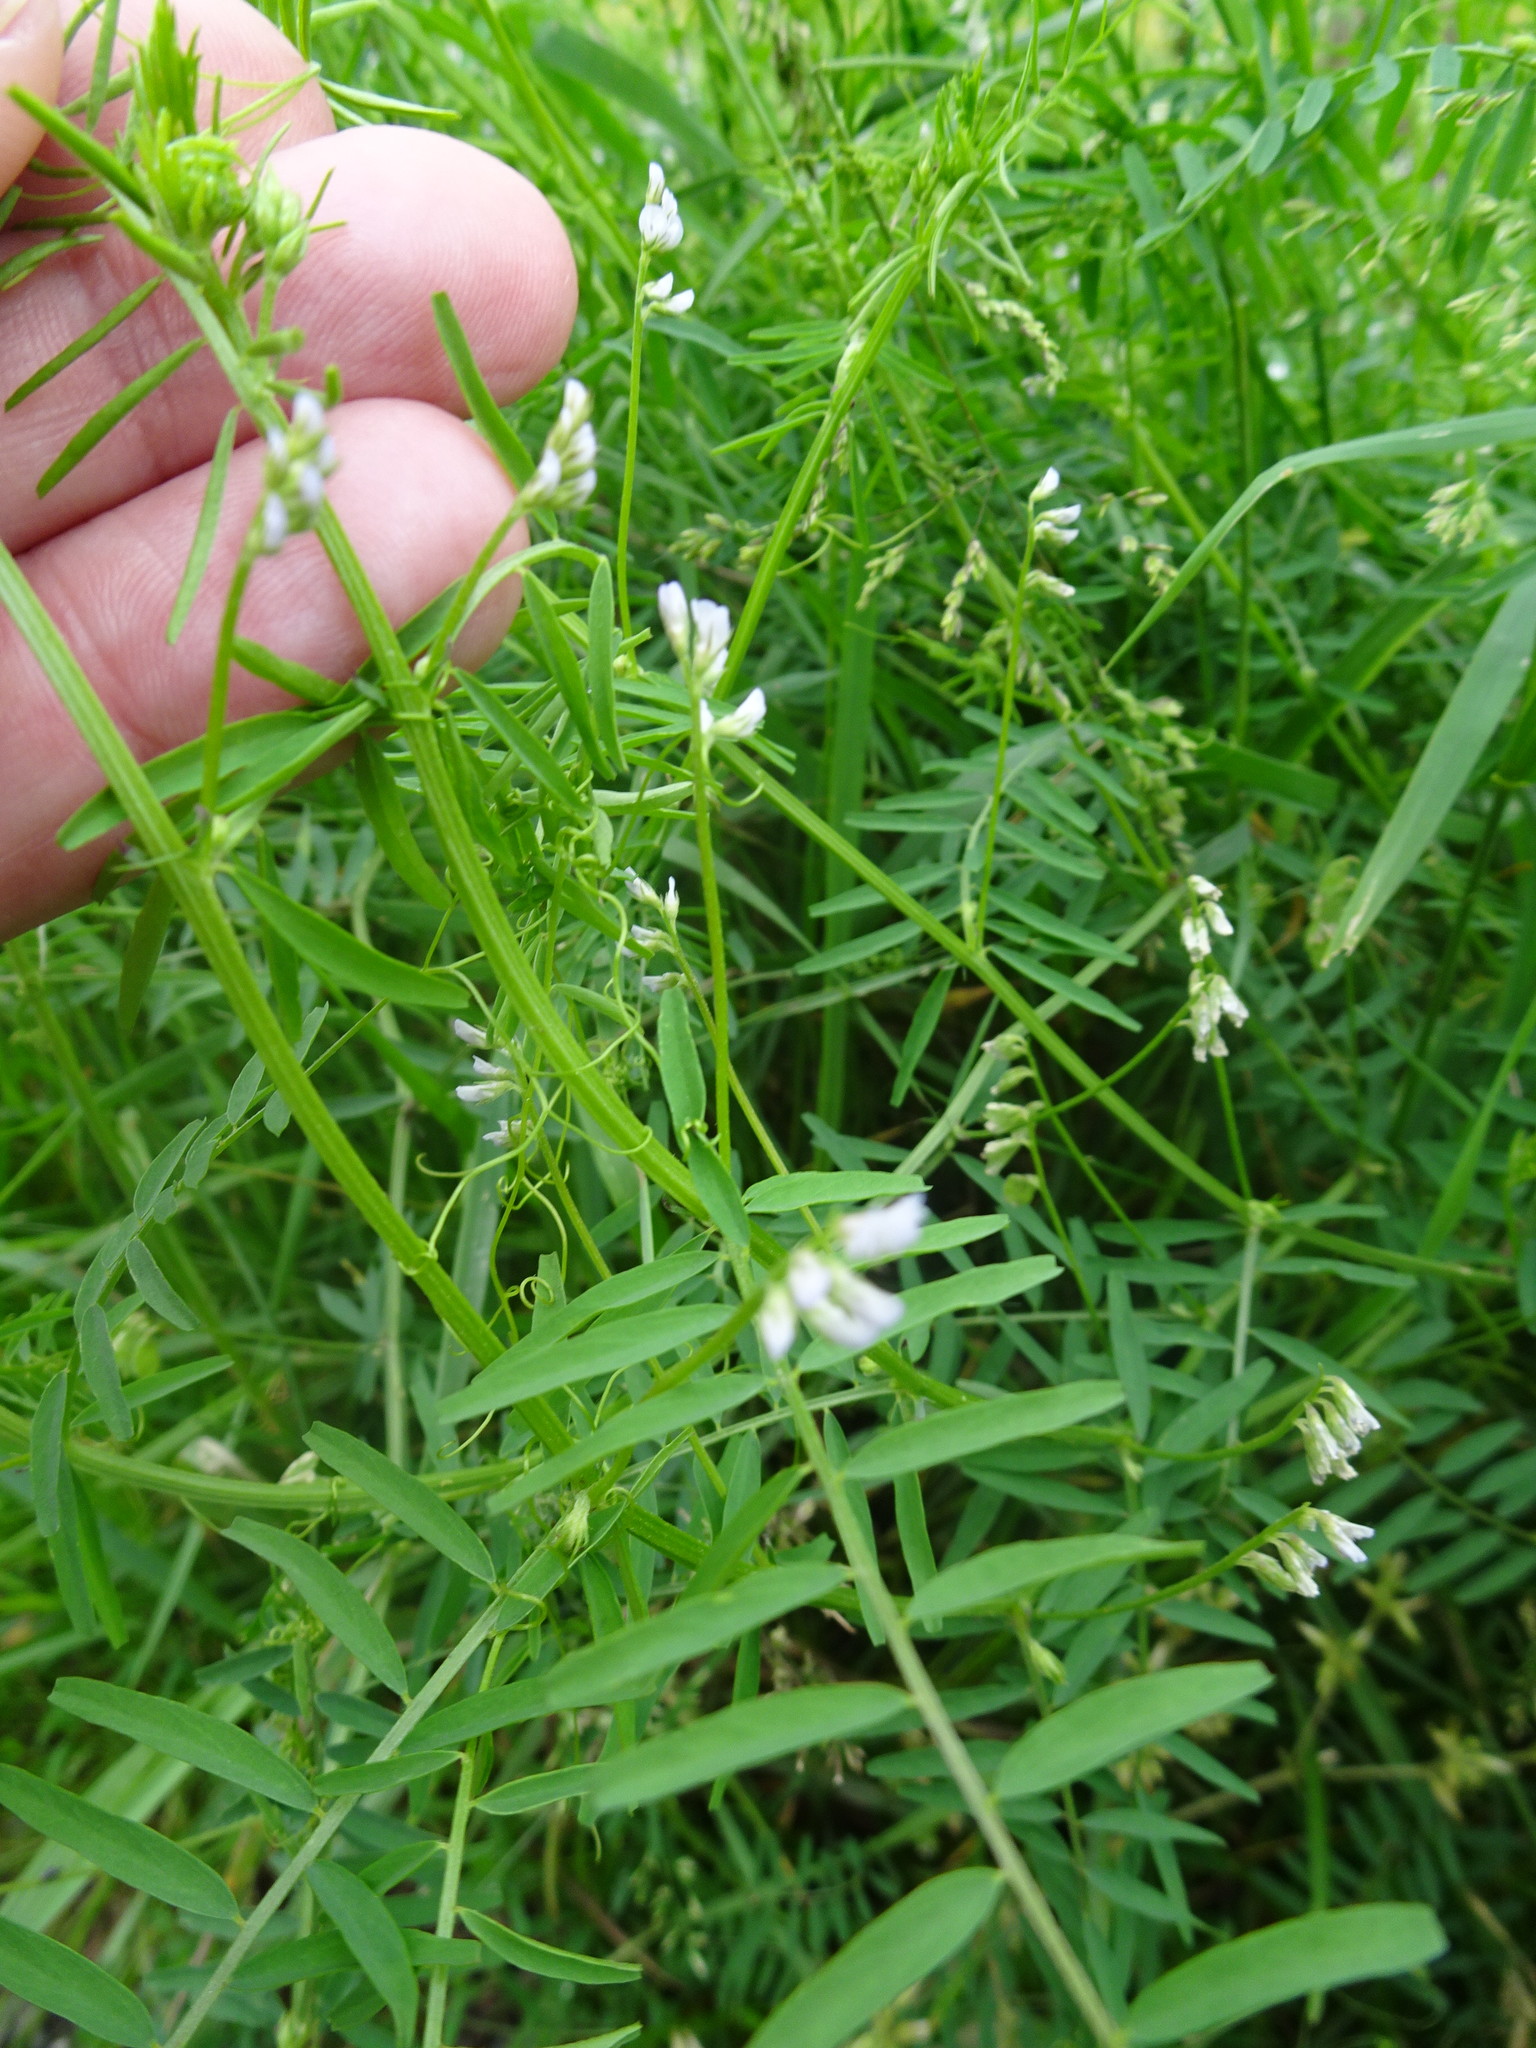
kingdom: Plantae
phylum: Tracheophyta
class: Magnoliopsida
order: Fabales
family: Fabaceae
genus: Vicia
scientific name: Vicia hirsuta
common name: Tiny vetch
